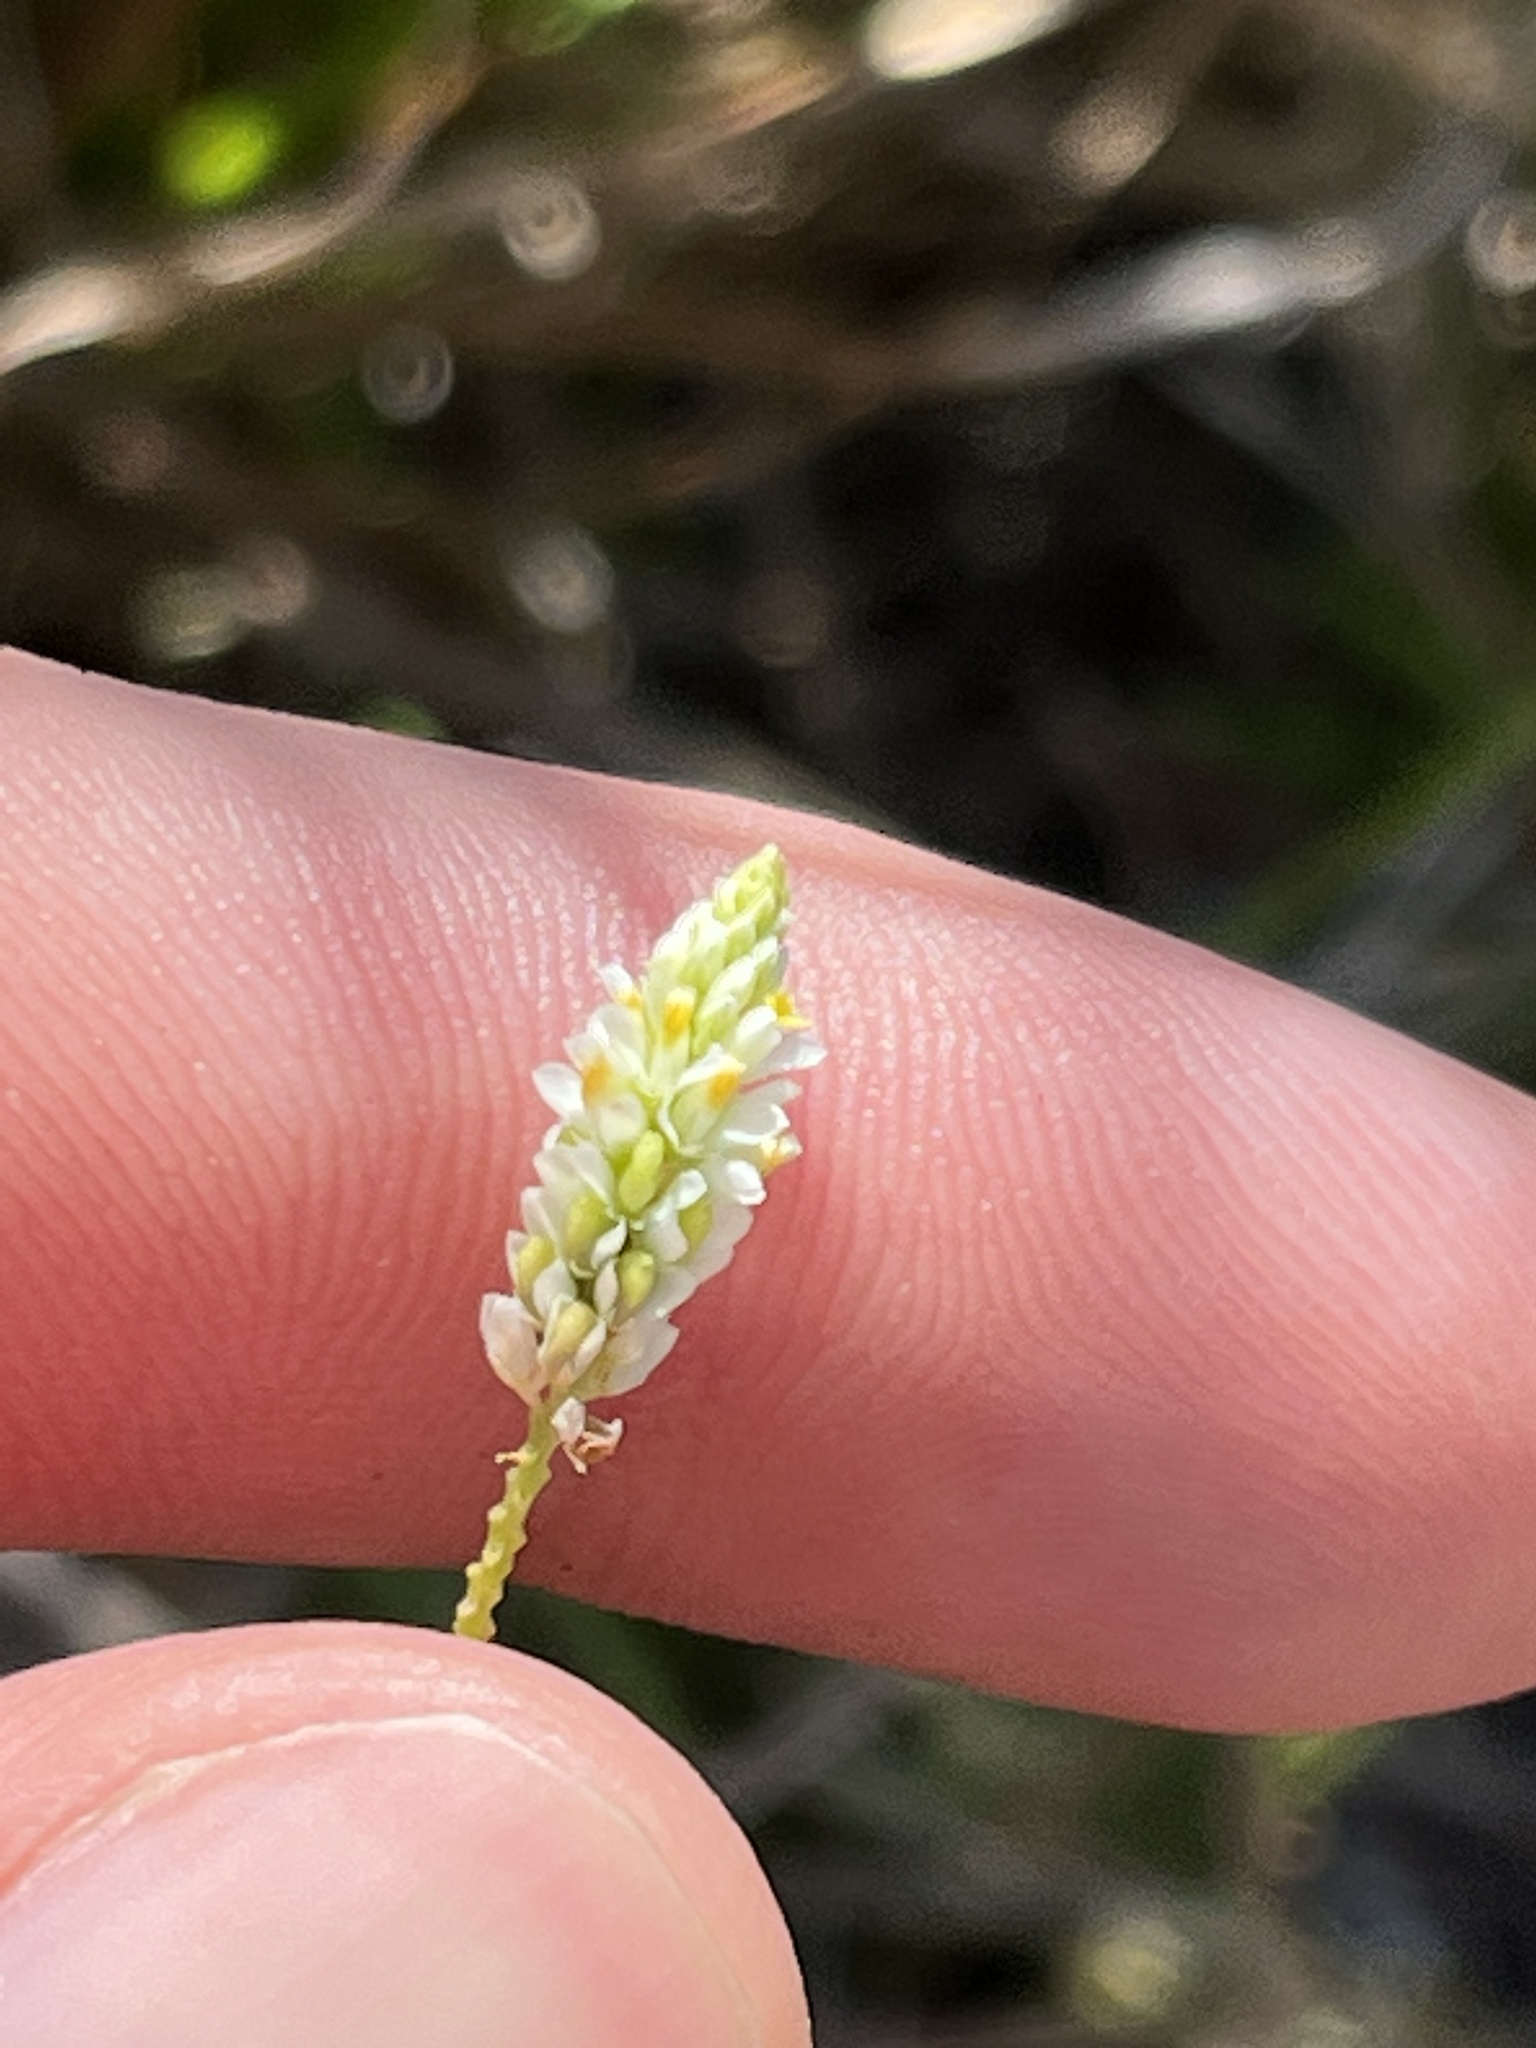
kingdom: Plantae
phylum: Tracheophyta
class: Magnoliopsida
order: Fabales
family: Polygalaceae
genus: Polygala
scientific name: Polygala setacea
